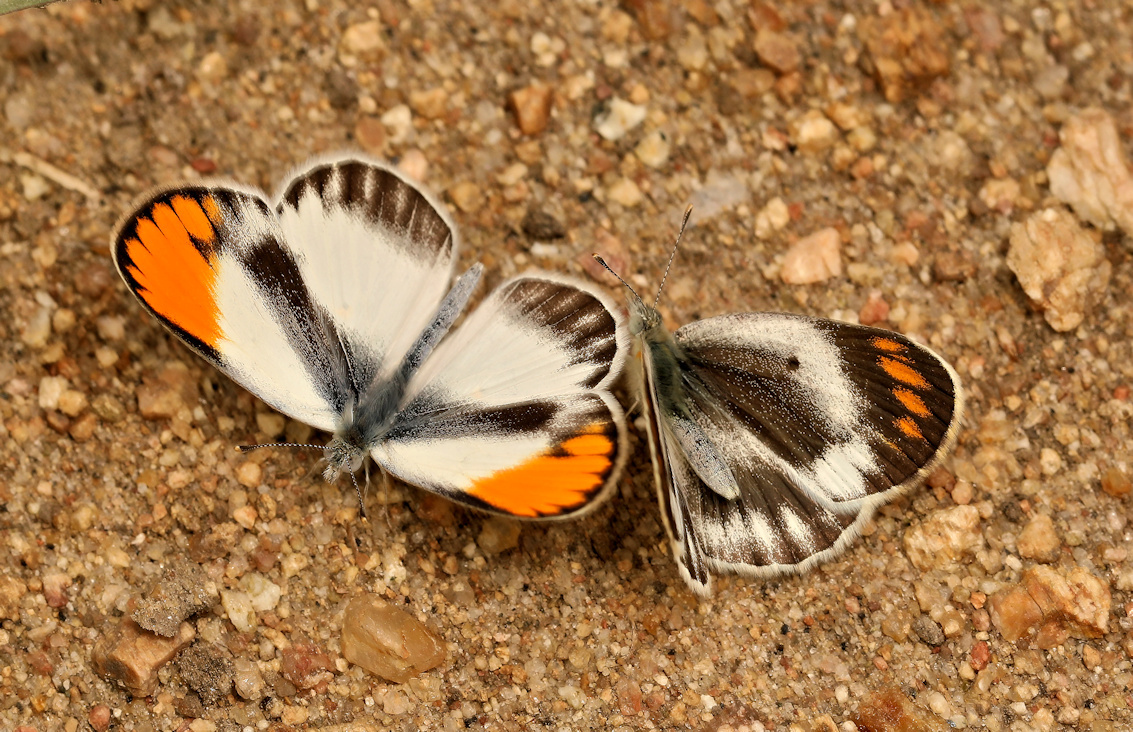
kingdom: Animalia
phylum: Arthropoda
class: Insecta
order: Lepidoptera
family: Pieridae
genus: Colotis
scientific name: Colotis evagore
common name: Desert orange-tip
